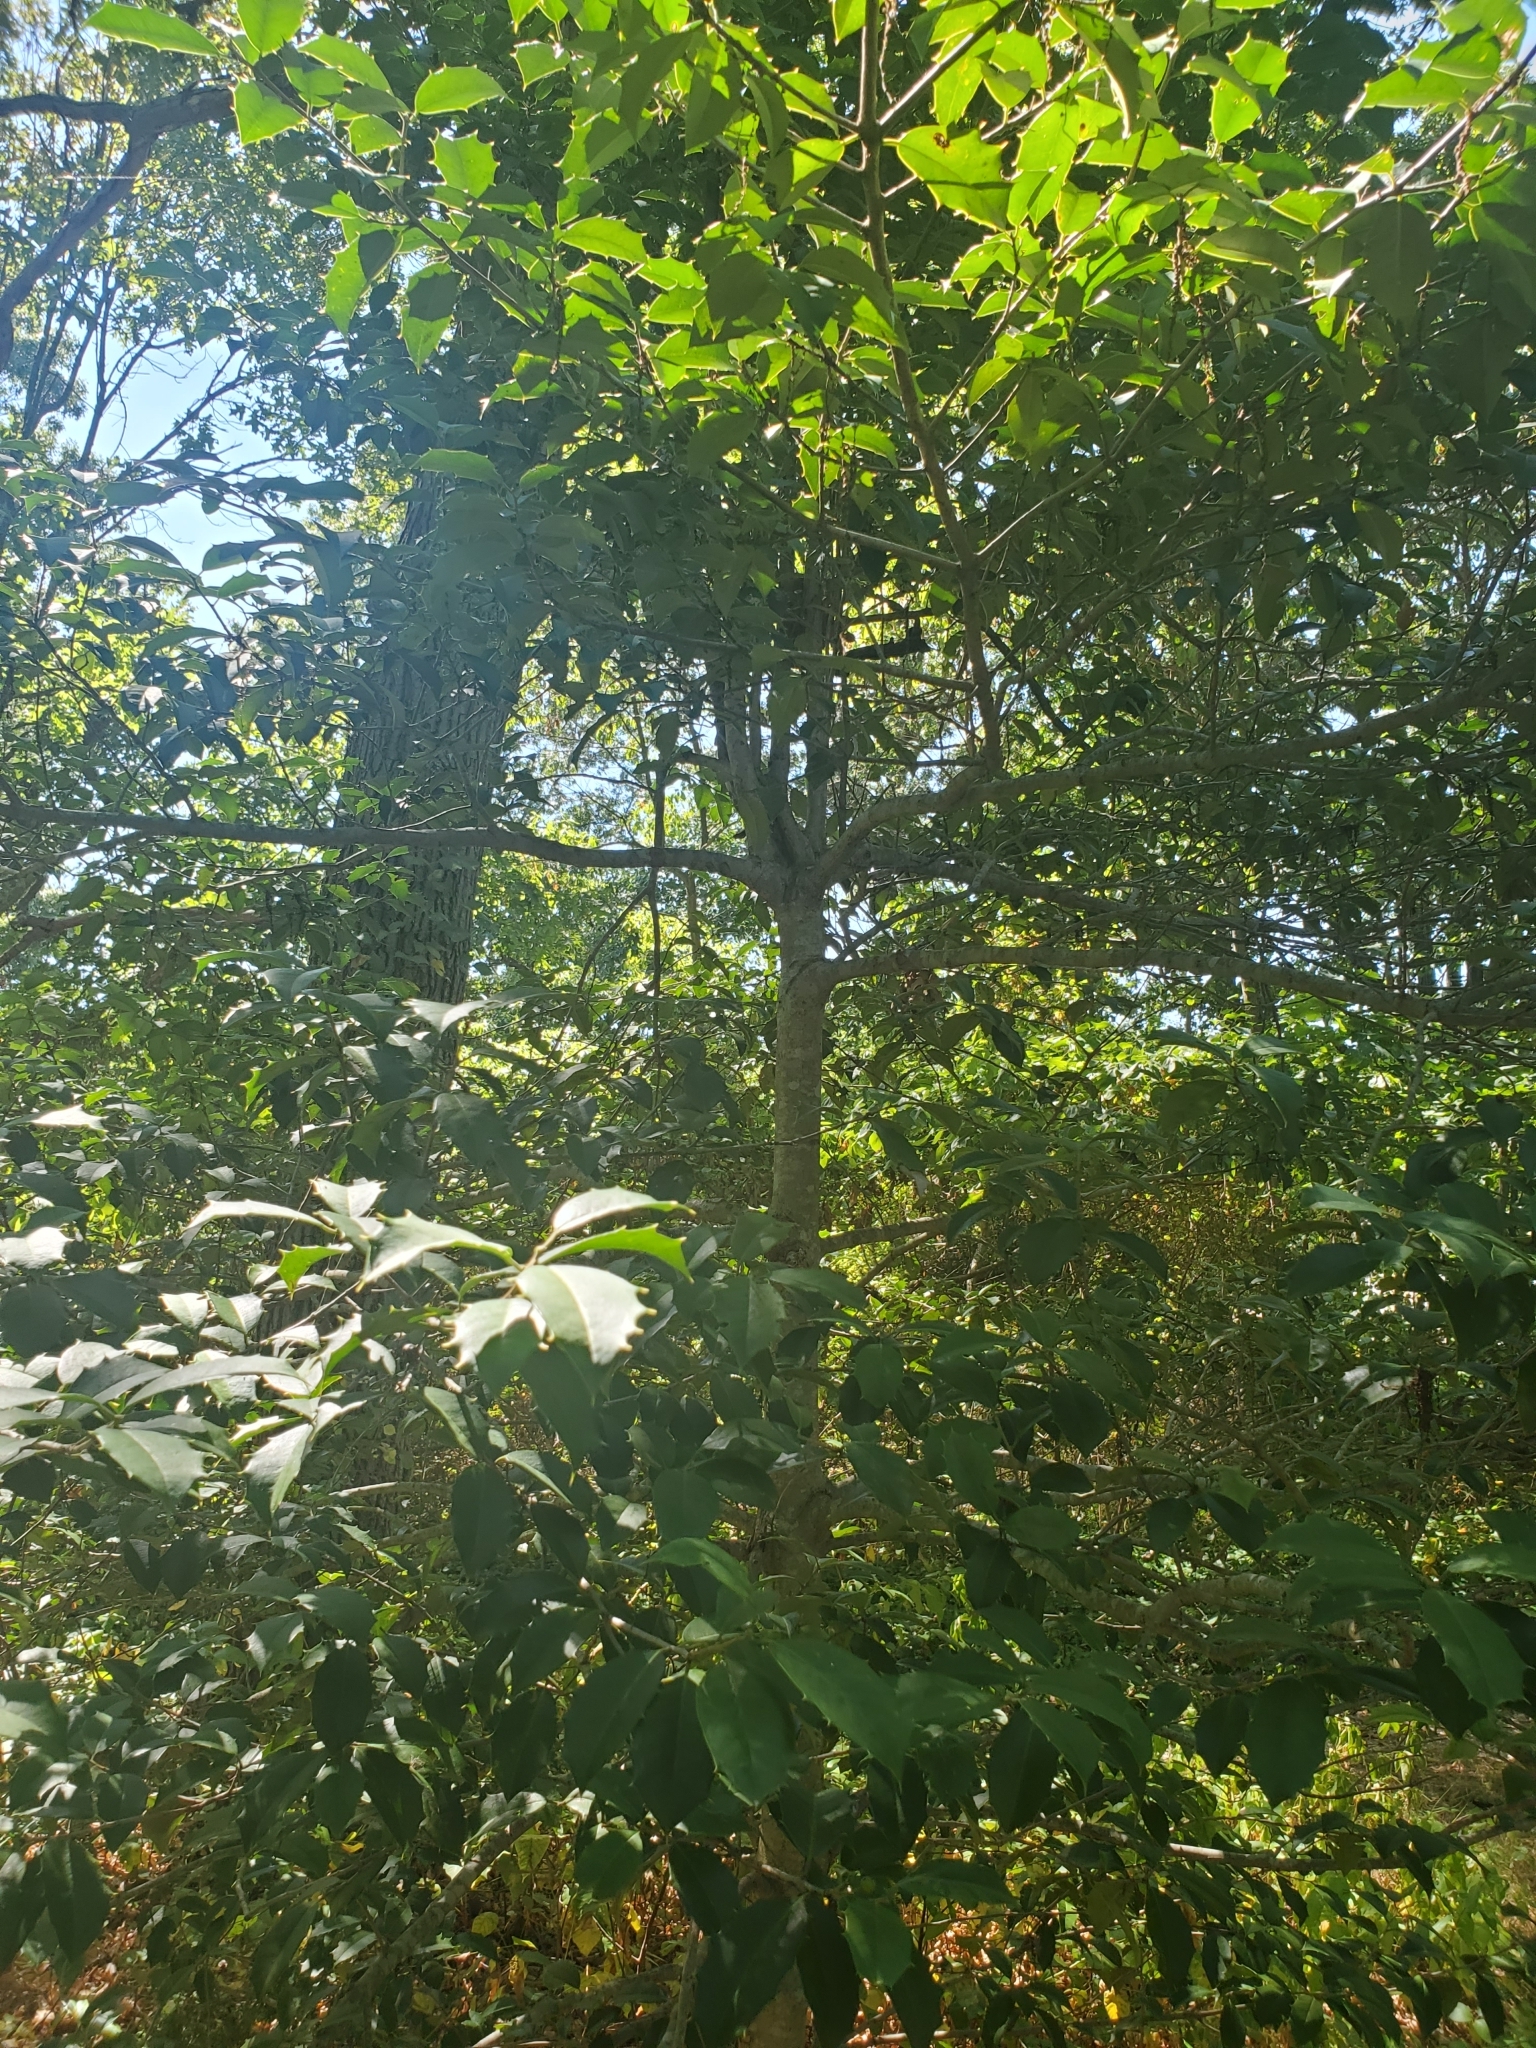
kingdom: Plantae
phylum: Tracheophyta
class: Magnoliopsida
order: Aquifoliales
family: Aquifoliaceae
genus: Ilex
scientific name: Ilex opaca
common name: American holly
